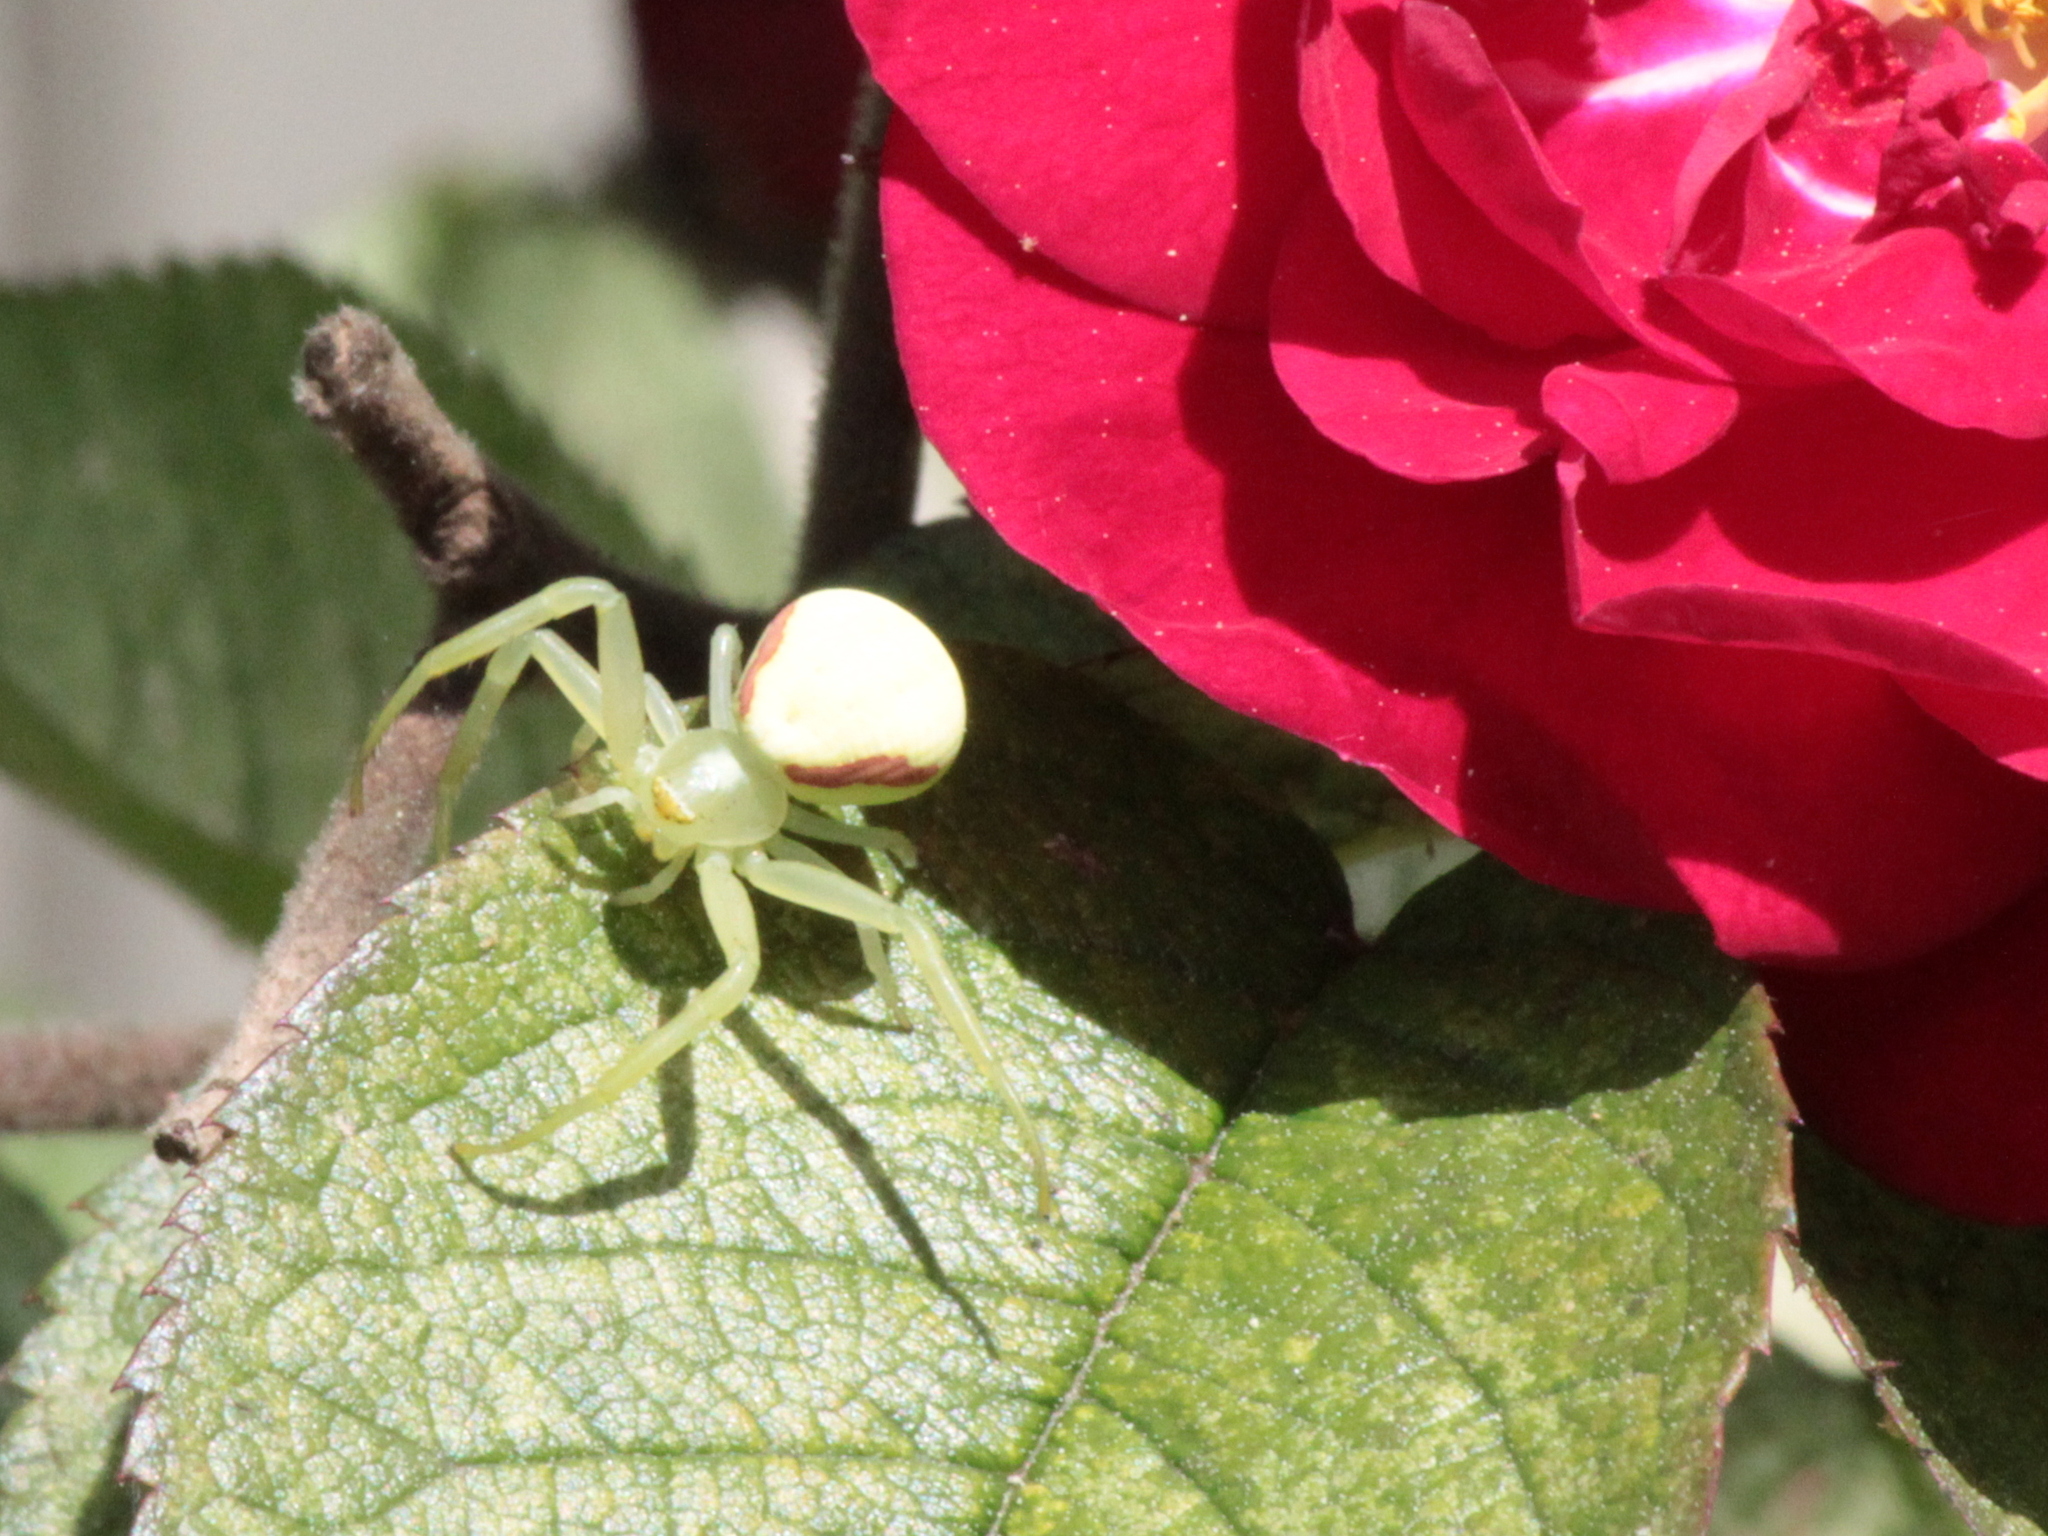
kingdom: Animalia
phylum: Arthropoda
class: Arachnida
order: Araneae
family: Thomisidae
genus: Misumena
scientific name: Misumena vatia
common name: Goldenrod crab spider
